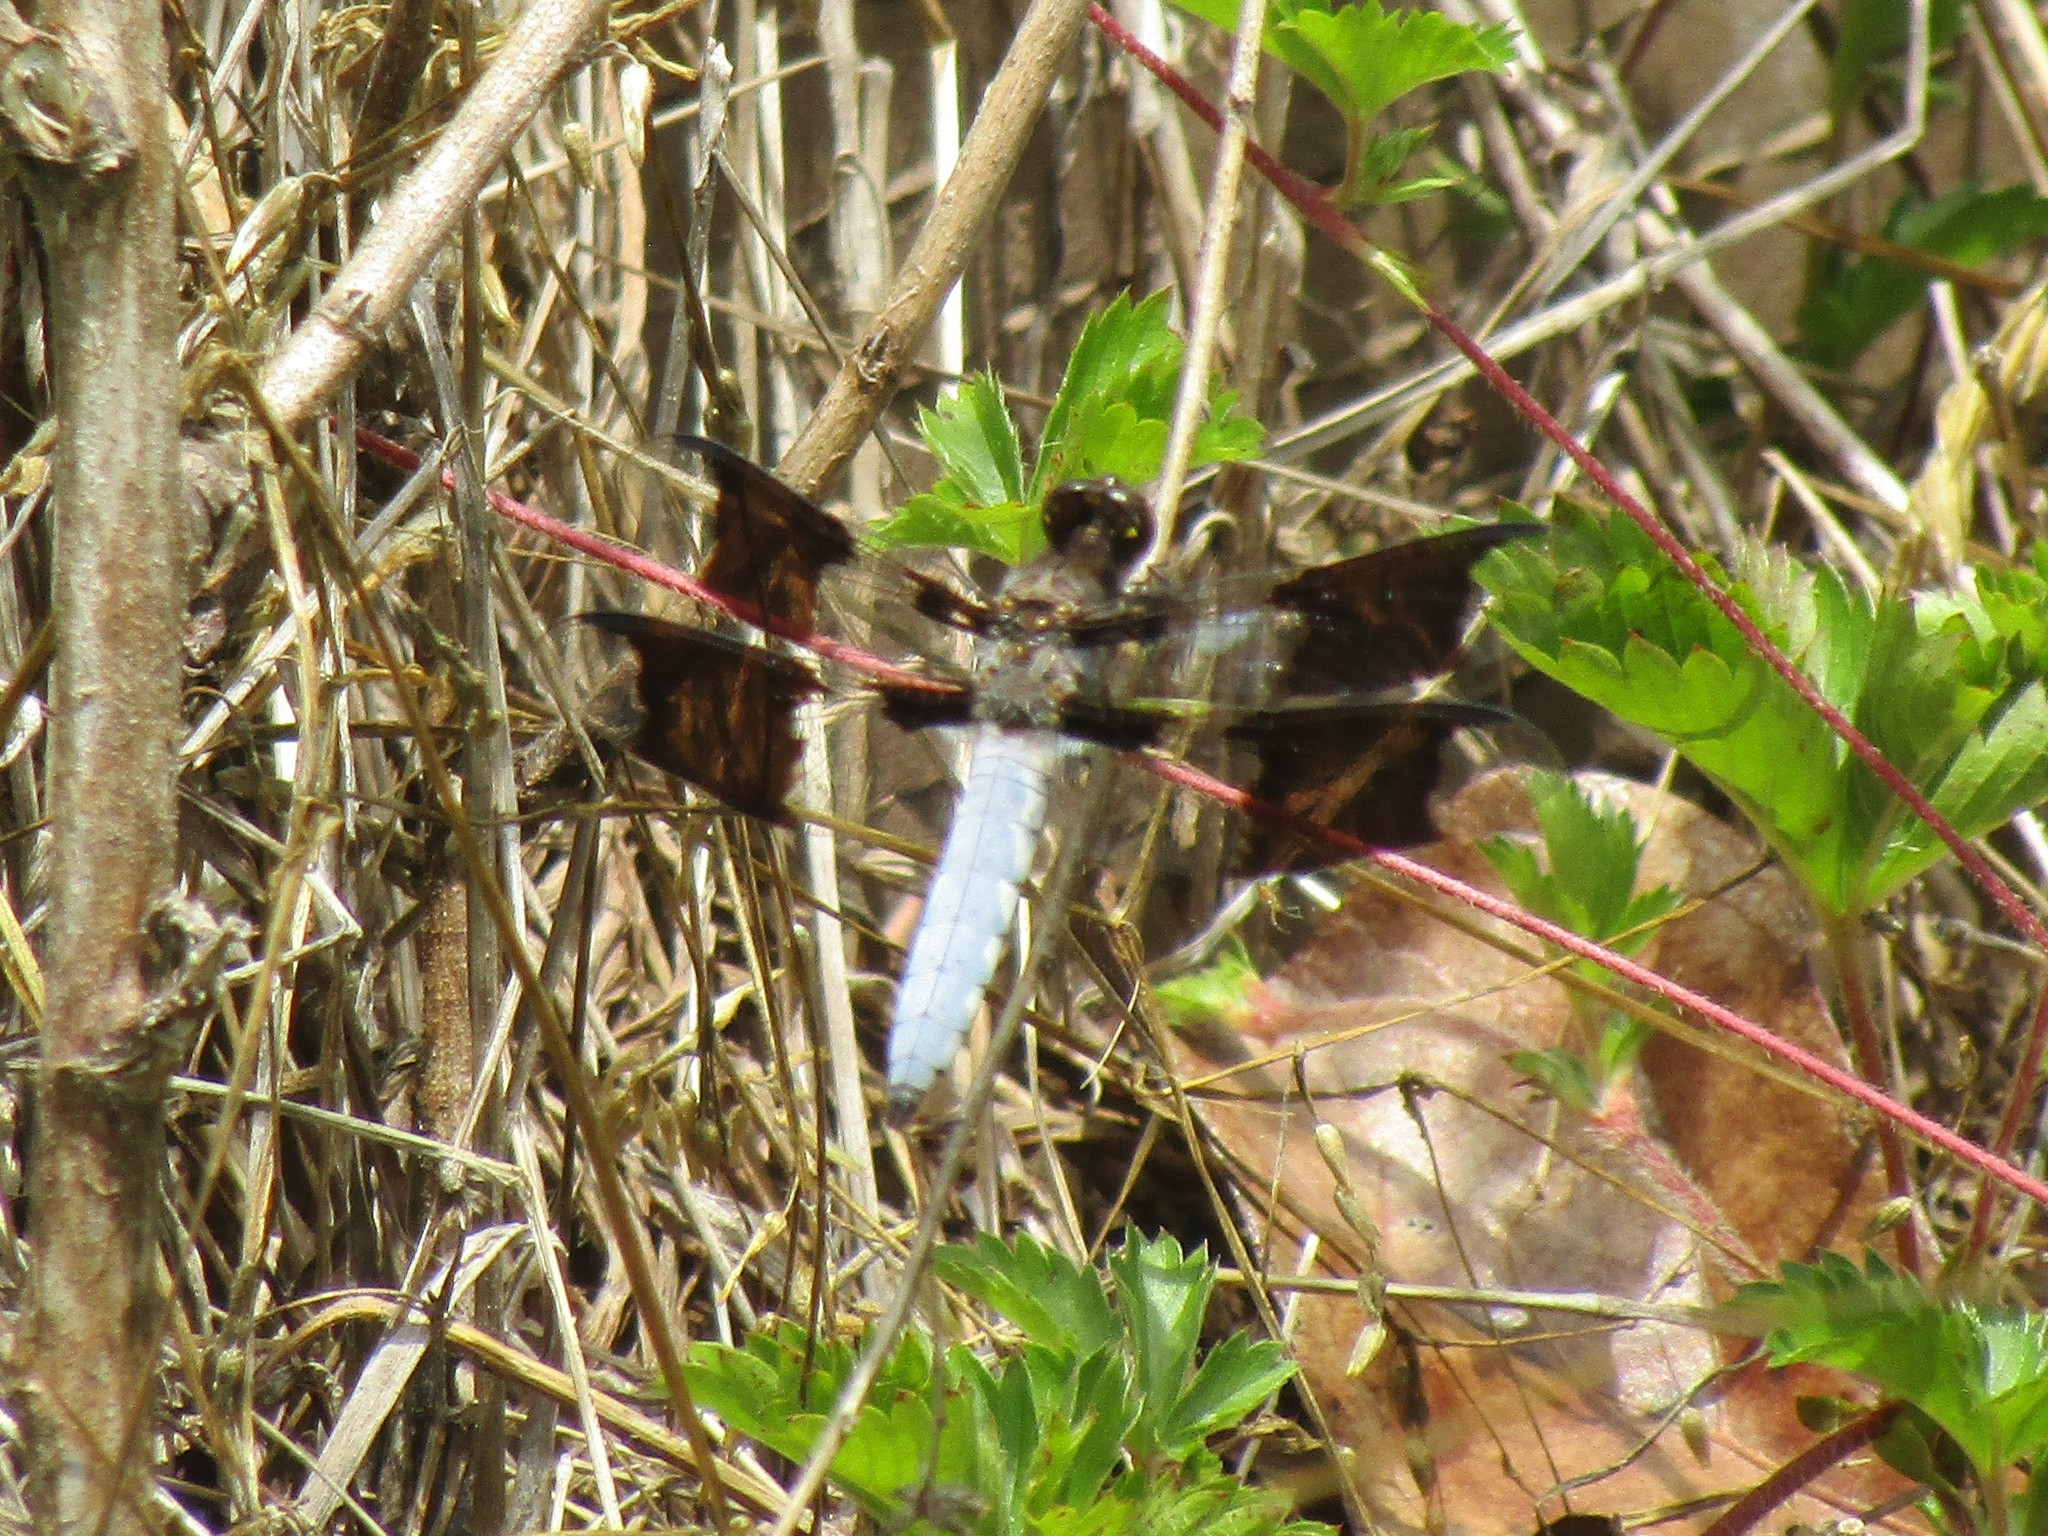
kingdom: Animalia
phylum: Arthropoda
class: Insecta
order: Odonata
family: Libellulidae
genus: Plathemis
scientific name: Plathemis lydia
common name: Common whitetail
